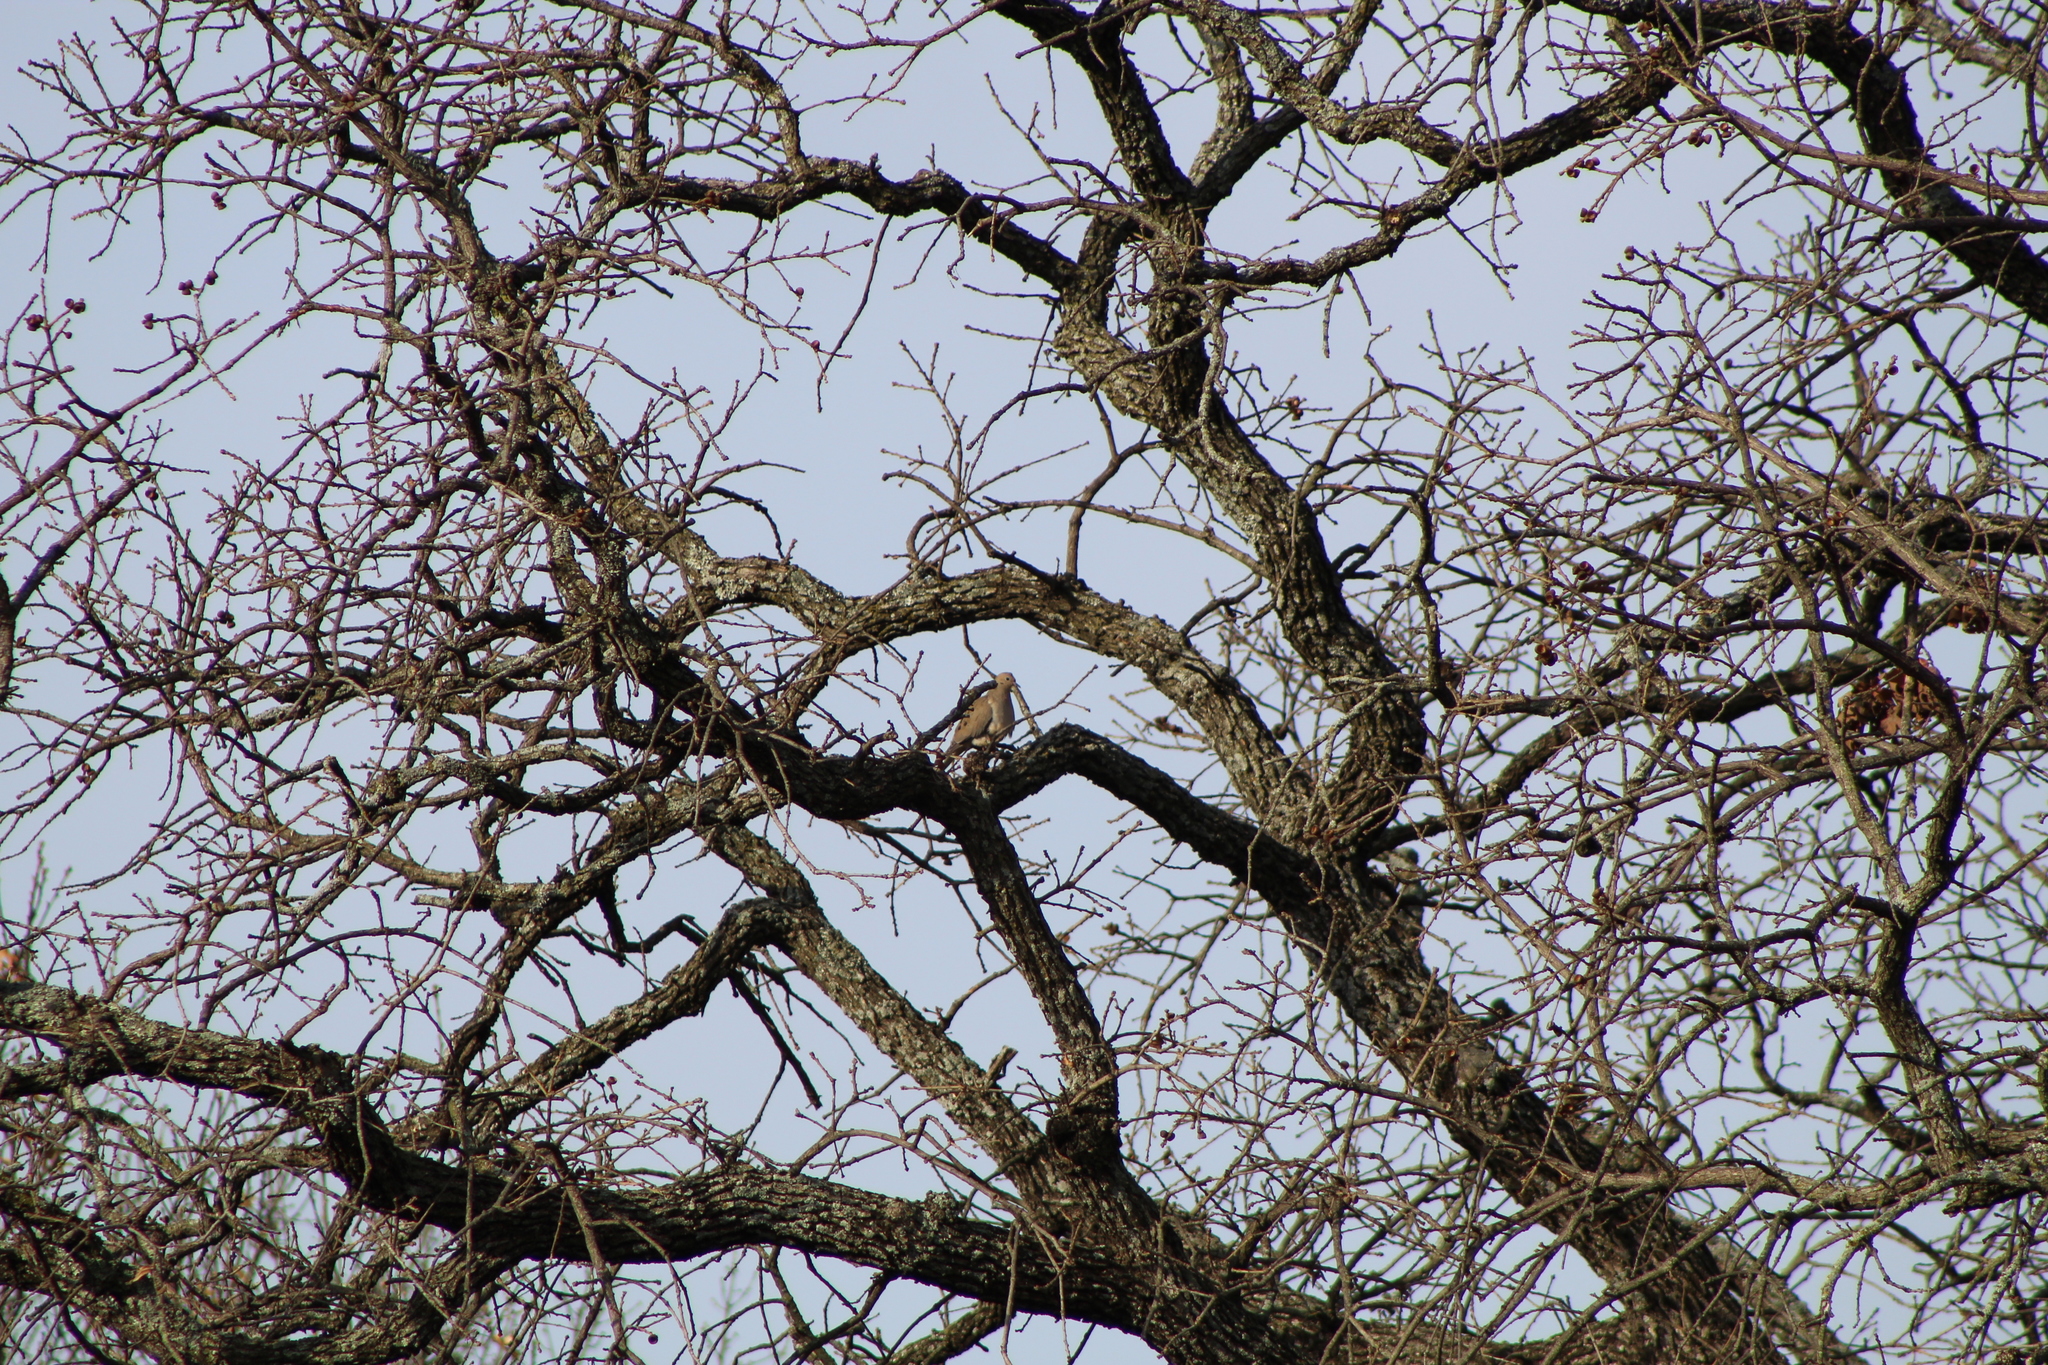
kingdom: Animalia
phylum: Chordata
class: Aves
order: Columbiformes
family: Columbidae
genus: Zenaida
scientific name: Zenaida macroura
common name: Mourning dove
